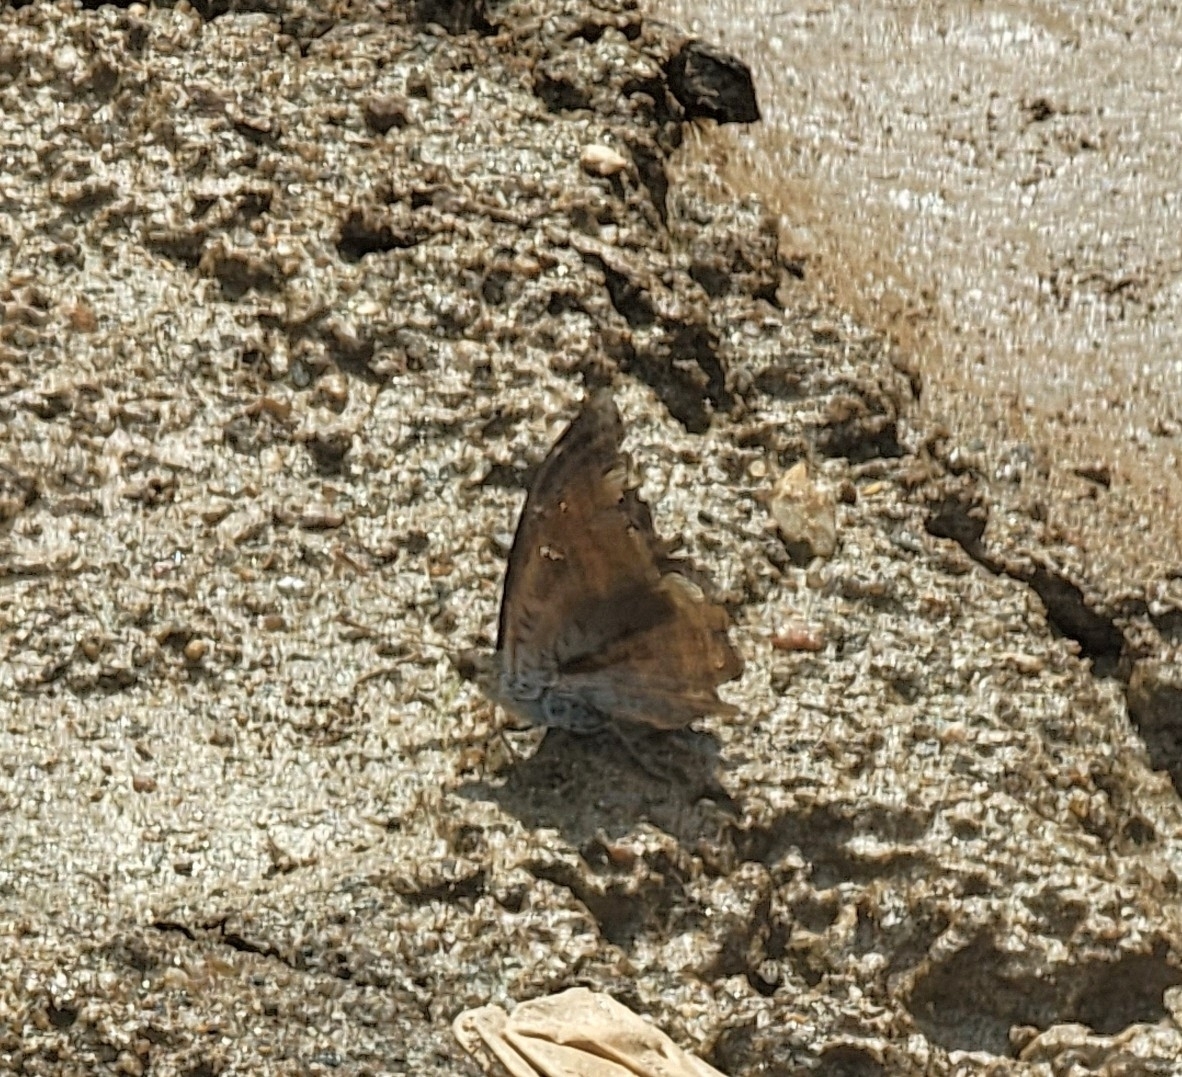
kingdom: Animalia
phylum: Arthropoda
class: Insecta
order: Lepidoptera
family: Nymphalidae
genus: Euthalia
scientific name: Euthalia aconthea
